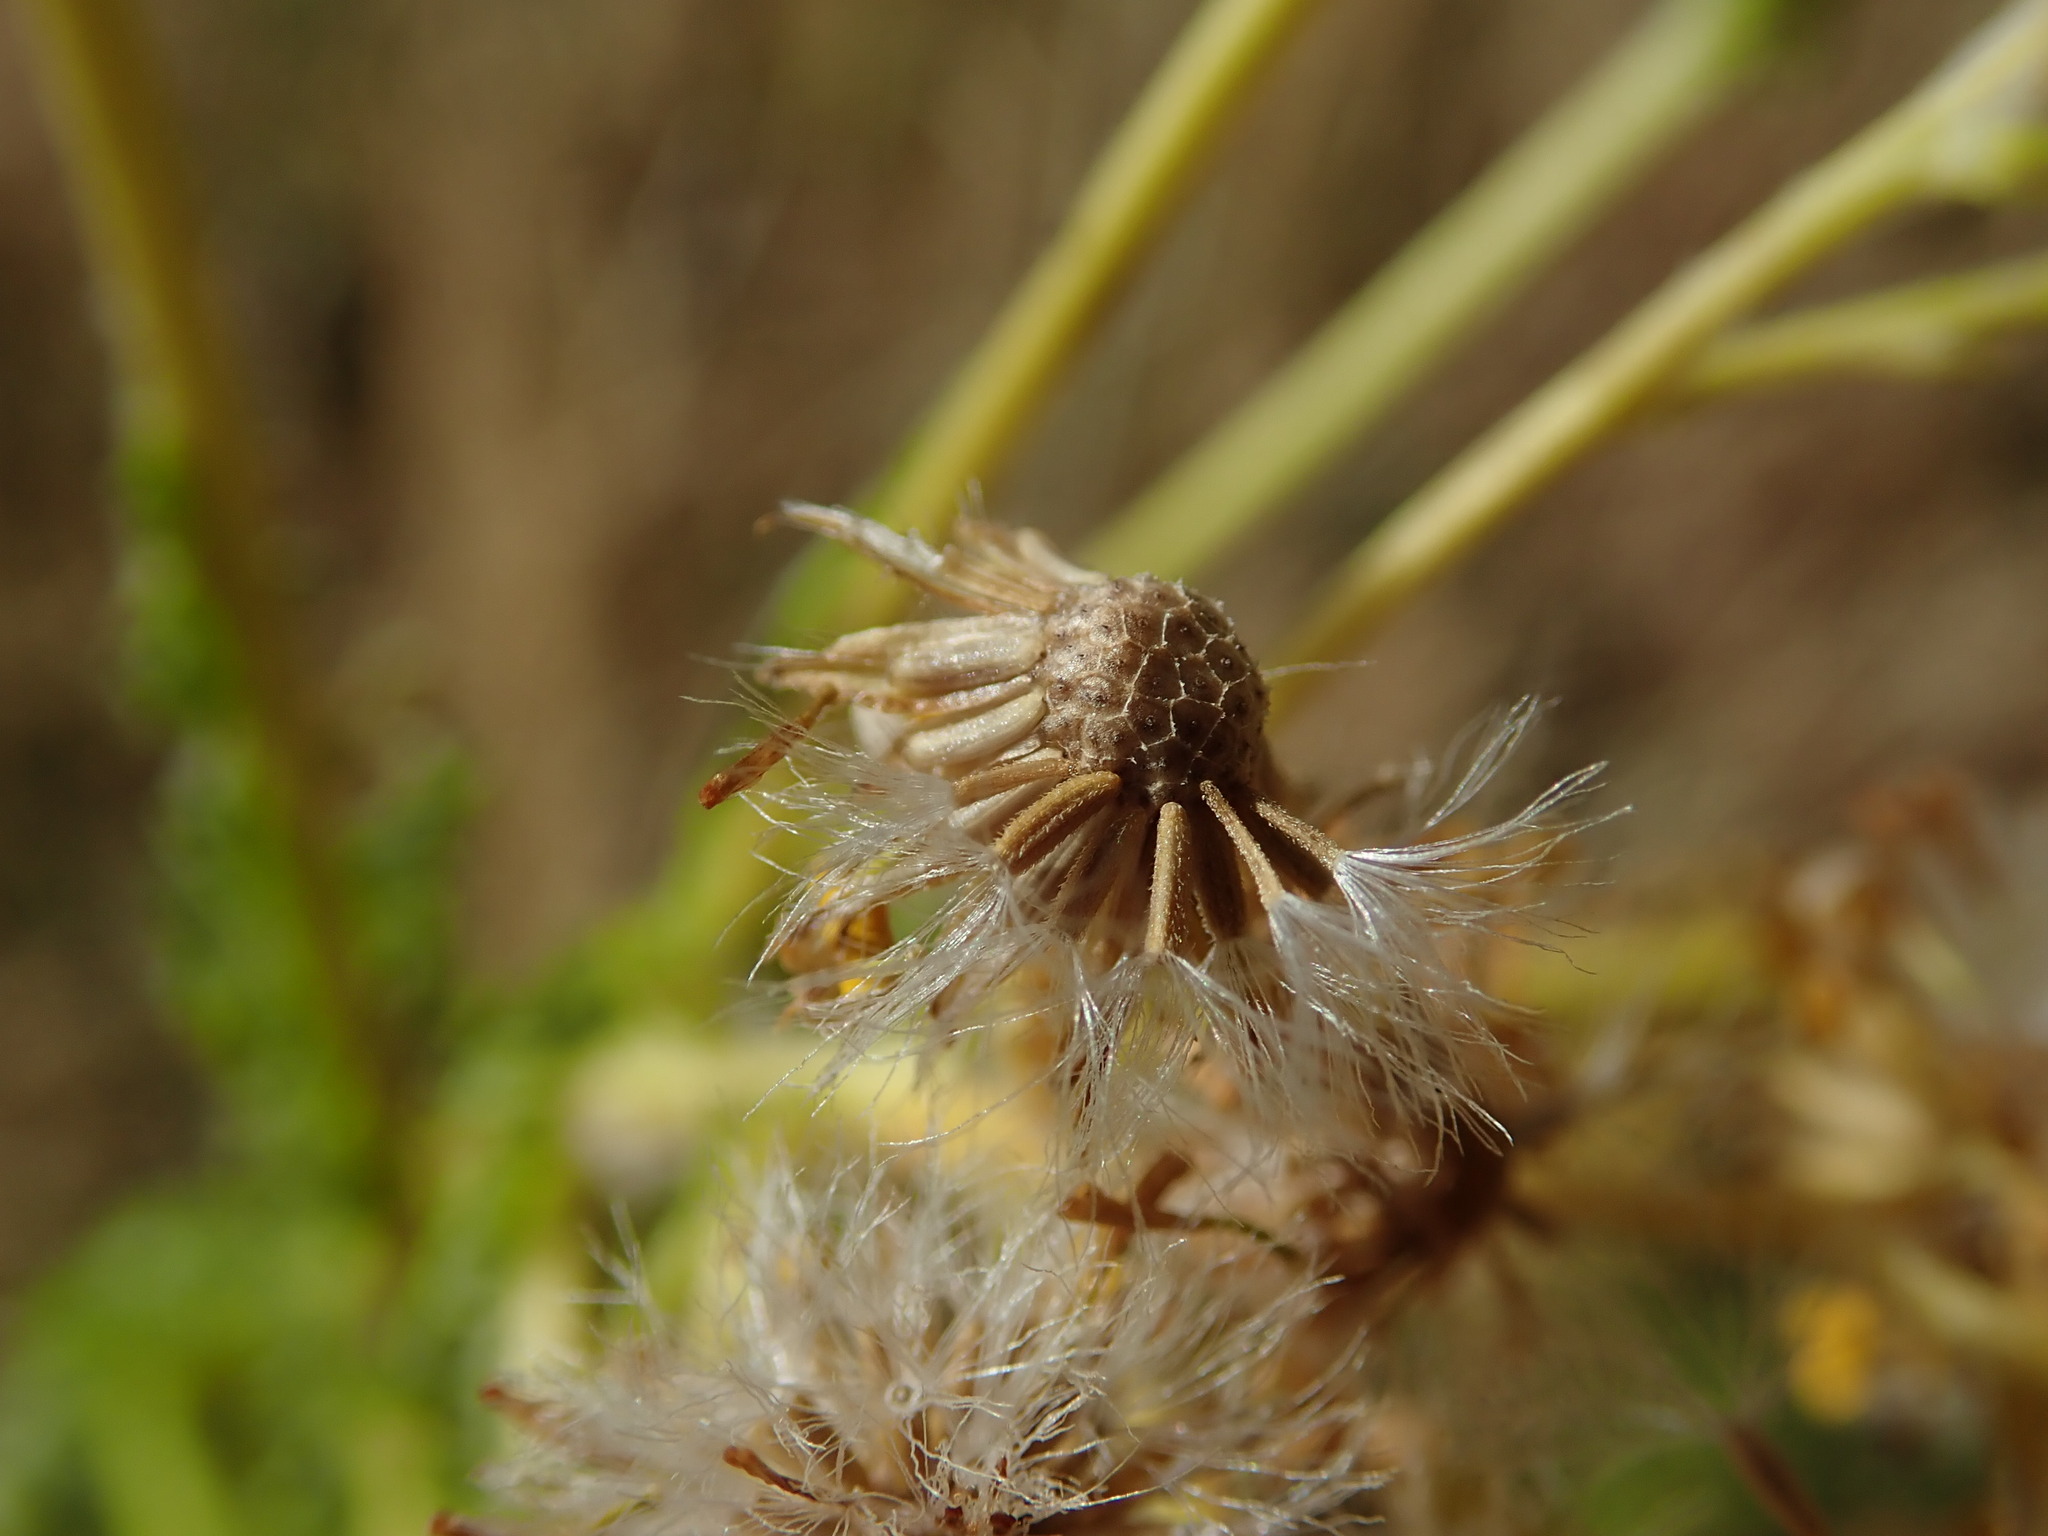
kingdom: Plantae
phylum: Tracheophyta
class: Magnoliopsida
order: Asterales
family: Asteraceae
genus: Jacobaea
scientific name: Jacobaea vulgaris
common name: Stinking willie
